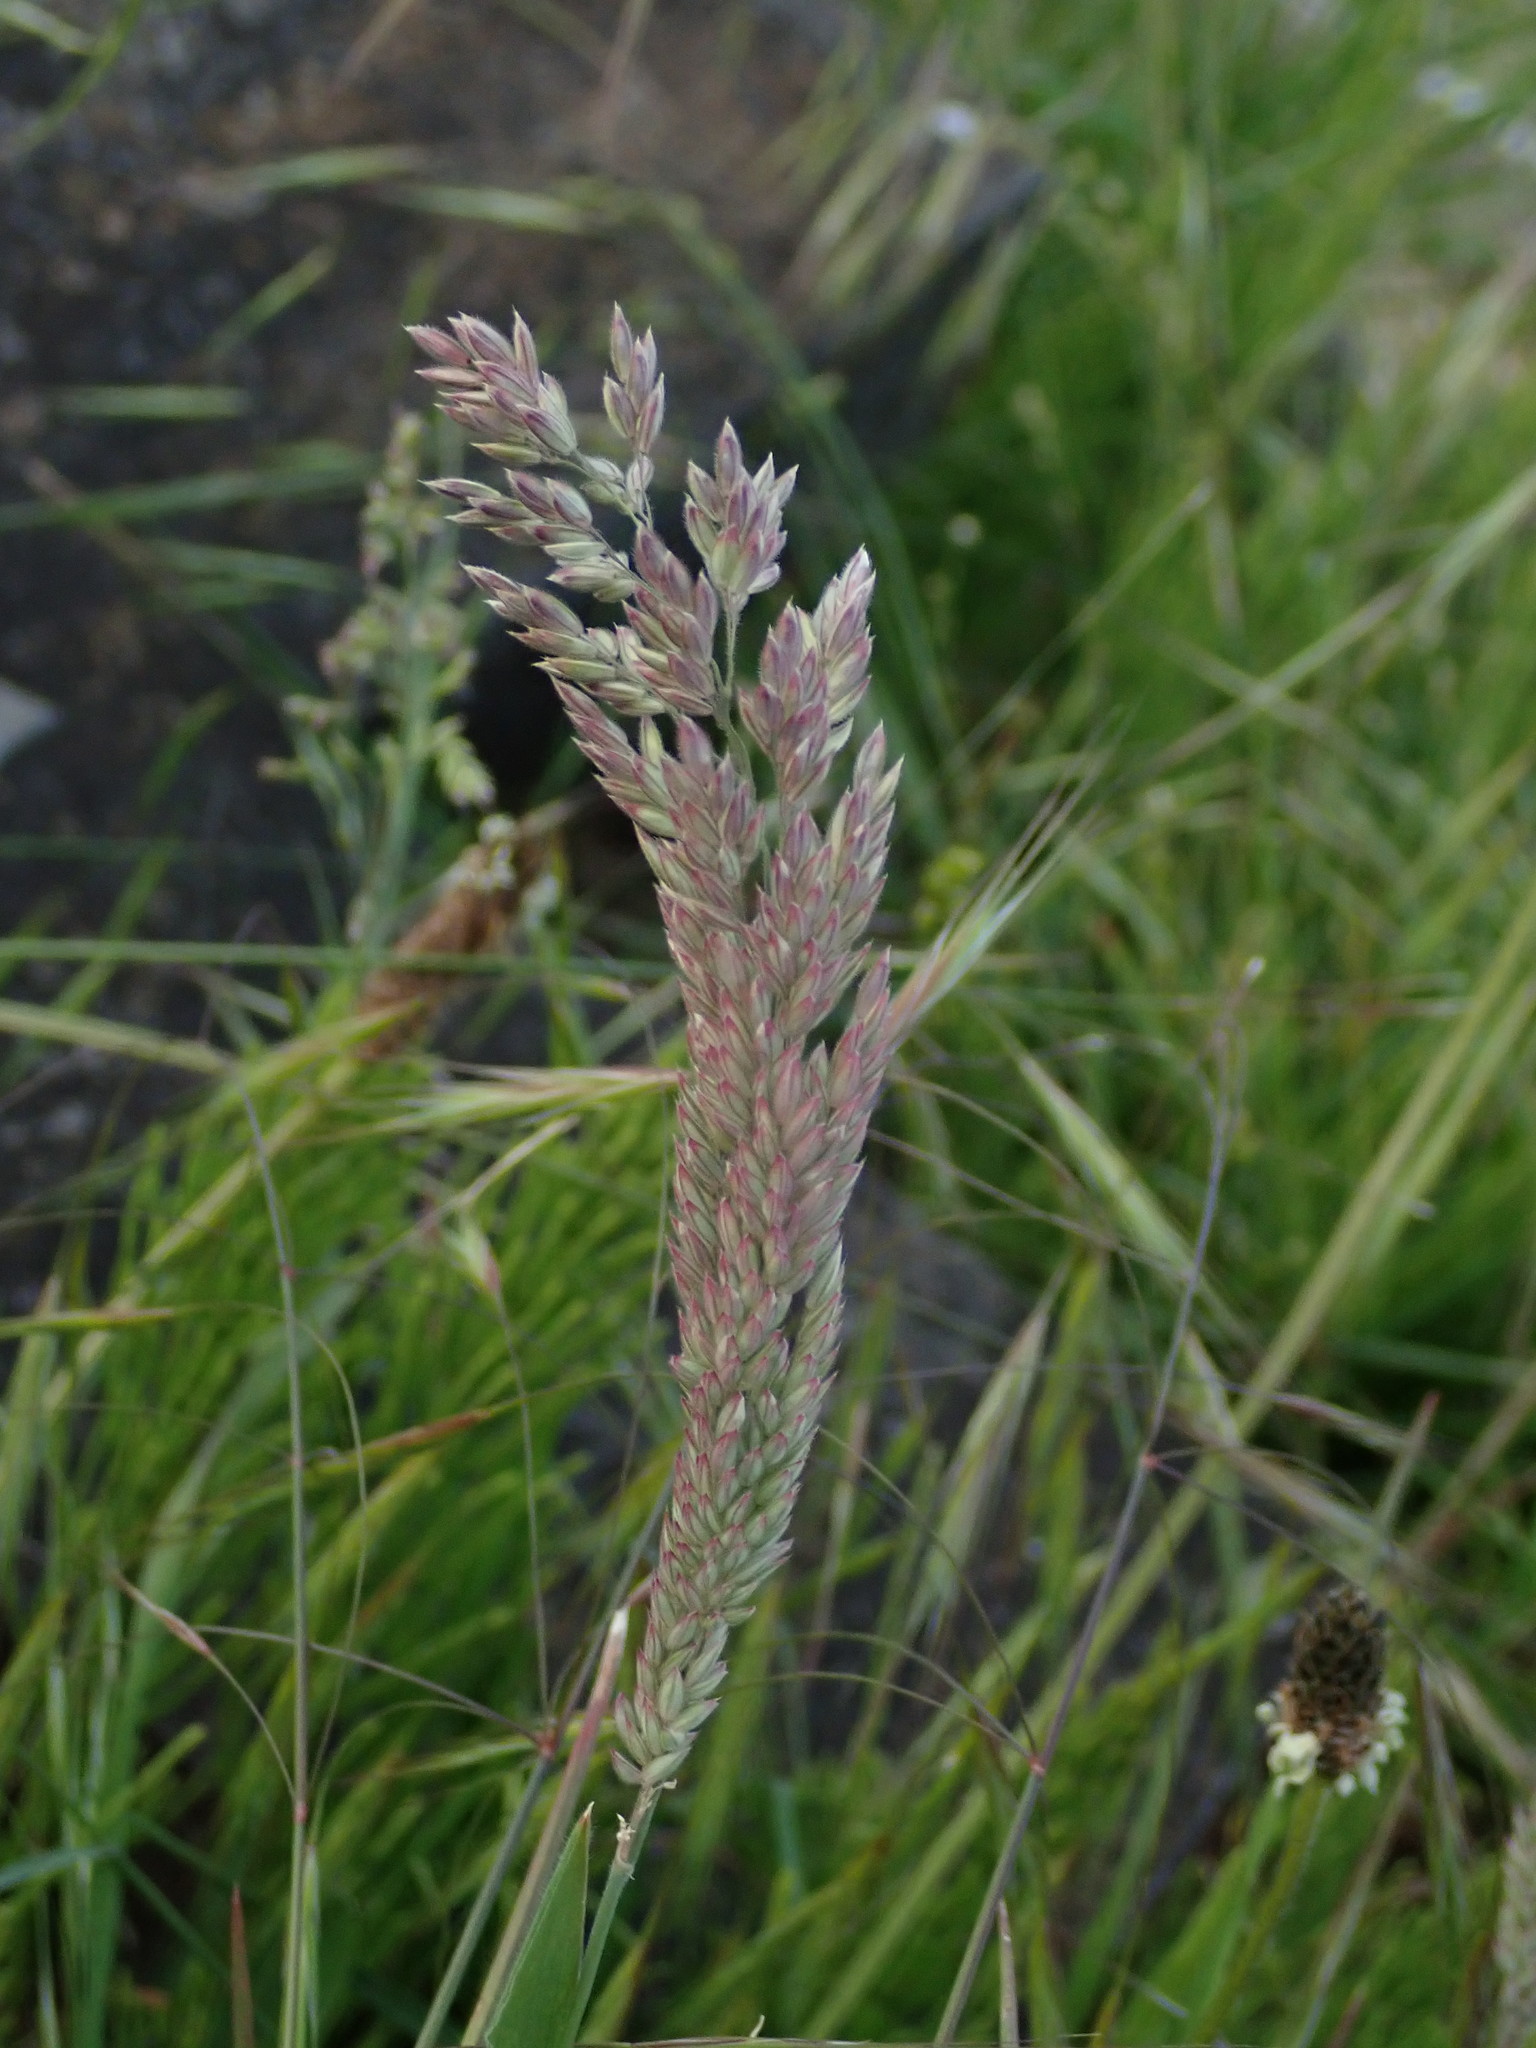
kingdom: Plantae
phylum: Tracheophyta
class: Liliopsida
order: Poales
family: Poaceae
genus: Holcus
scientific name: Holcus lanatus
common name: Yorkshire-fog
